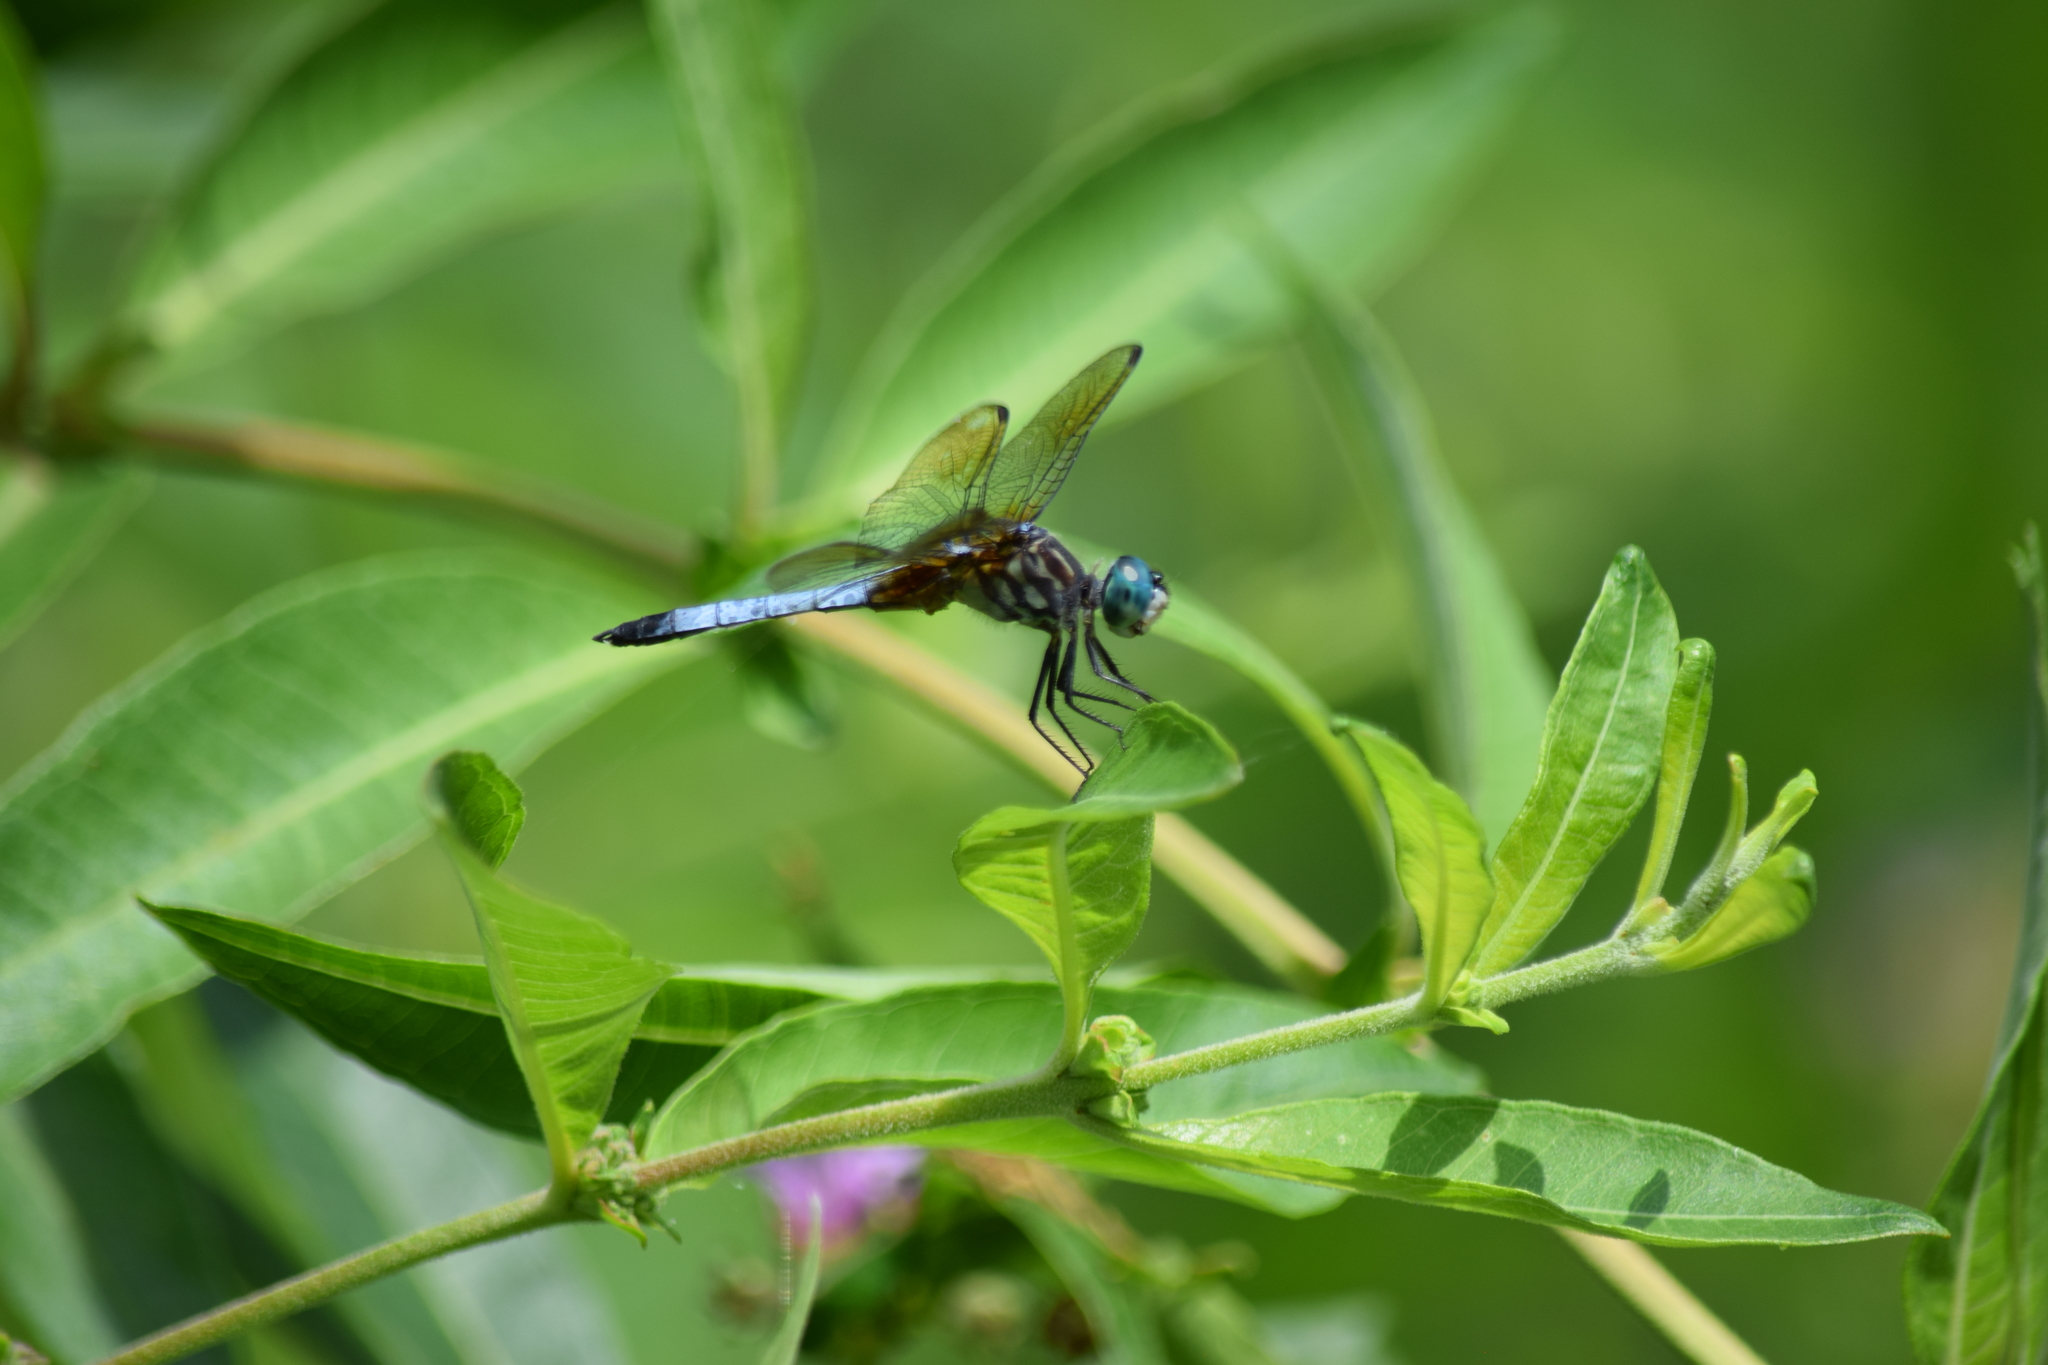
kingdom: Animalia
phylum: Arthropoda
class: Insecta
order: Odonata
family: Libellulidae
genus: Pachydiplax
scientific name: Pachydiplax longipennis
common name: Blue dasher
